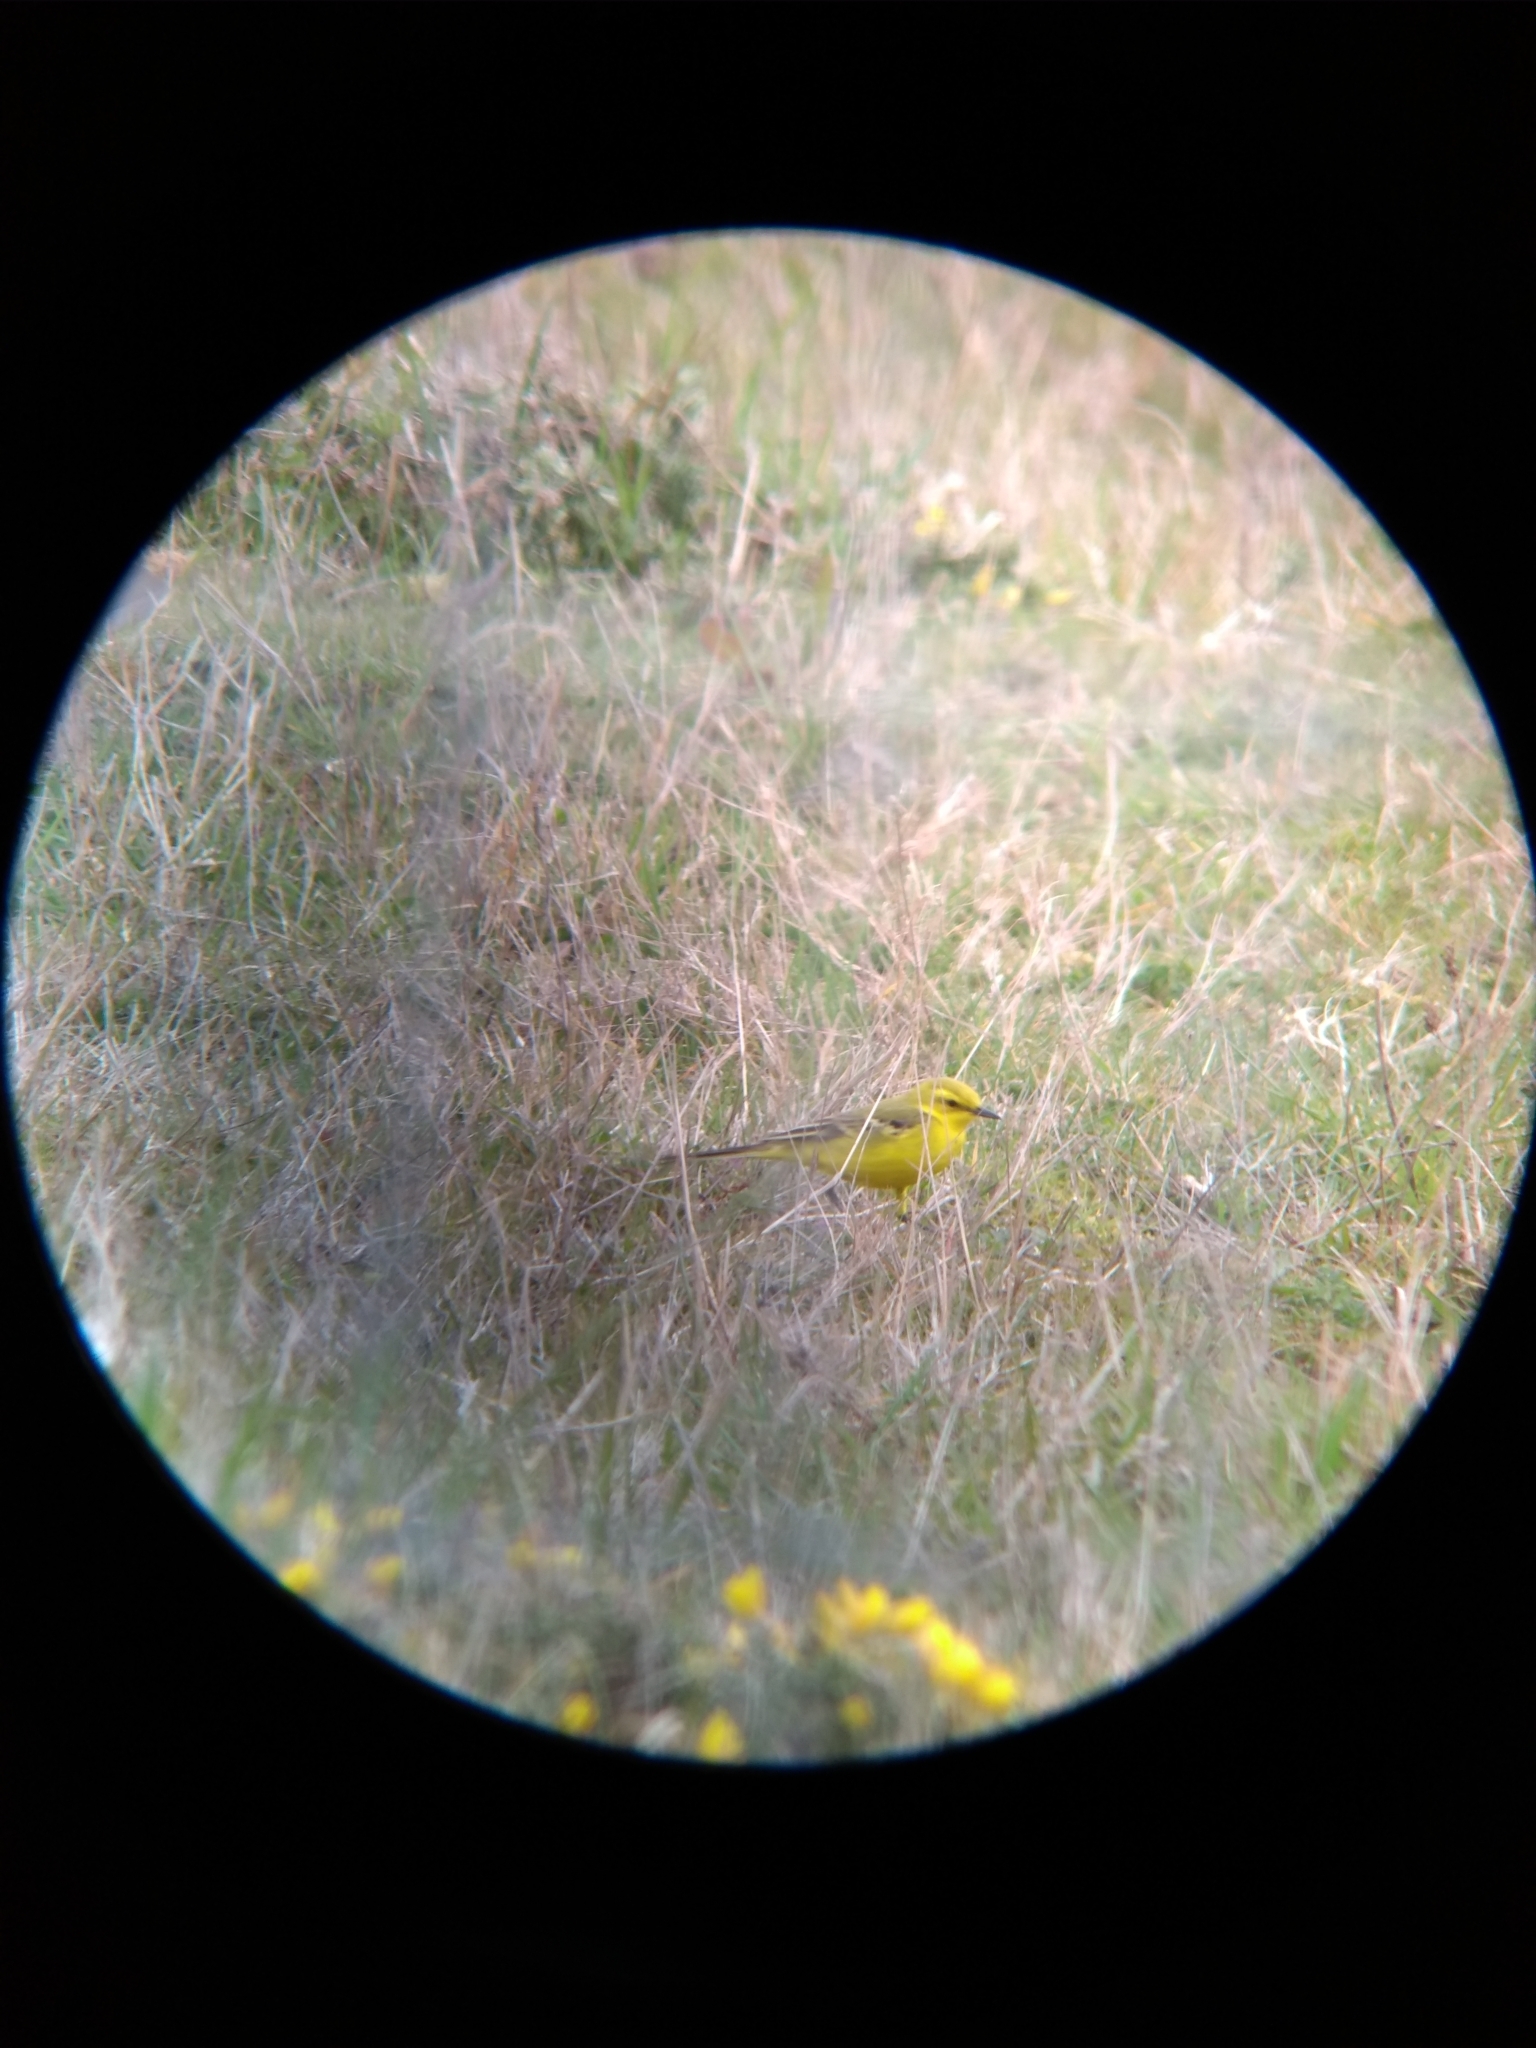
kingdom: Animalia
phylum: Chordata
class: Aves
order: Passeriformes
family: Motacillidae
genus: Motacilla
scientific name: Motacilla flava
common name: Western yellow wagtail
